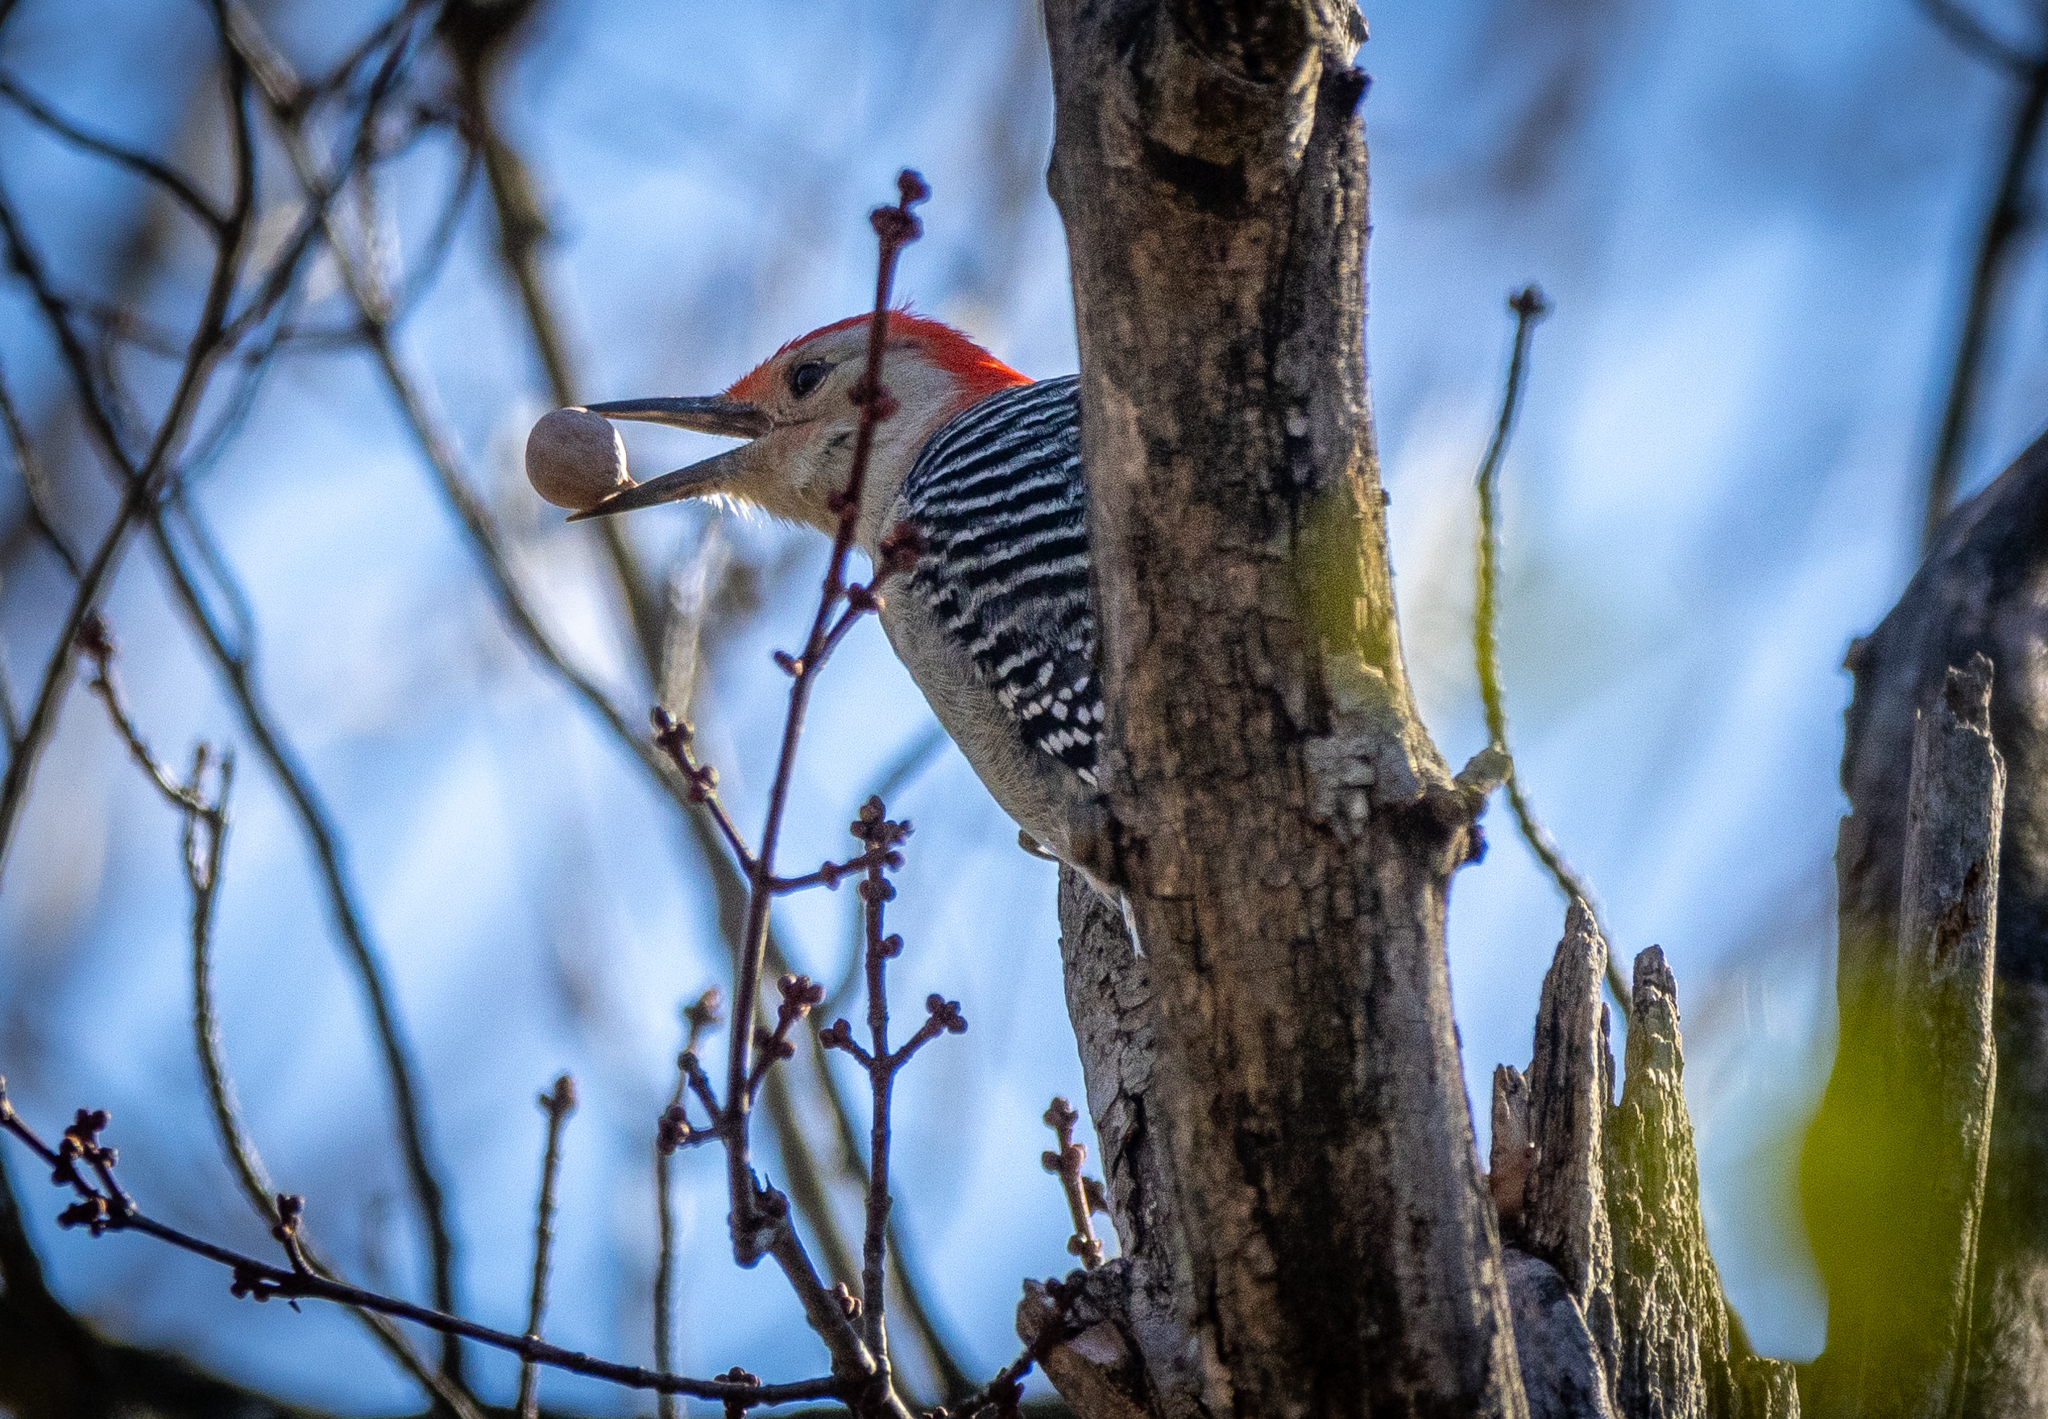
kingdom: Animalia
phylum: Chordata
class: Aves
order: Piciformes
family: Picidae
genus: Melanerpes
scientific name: Melanerpes carolinus
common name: Red-bellied woodpecker
